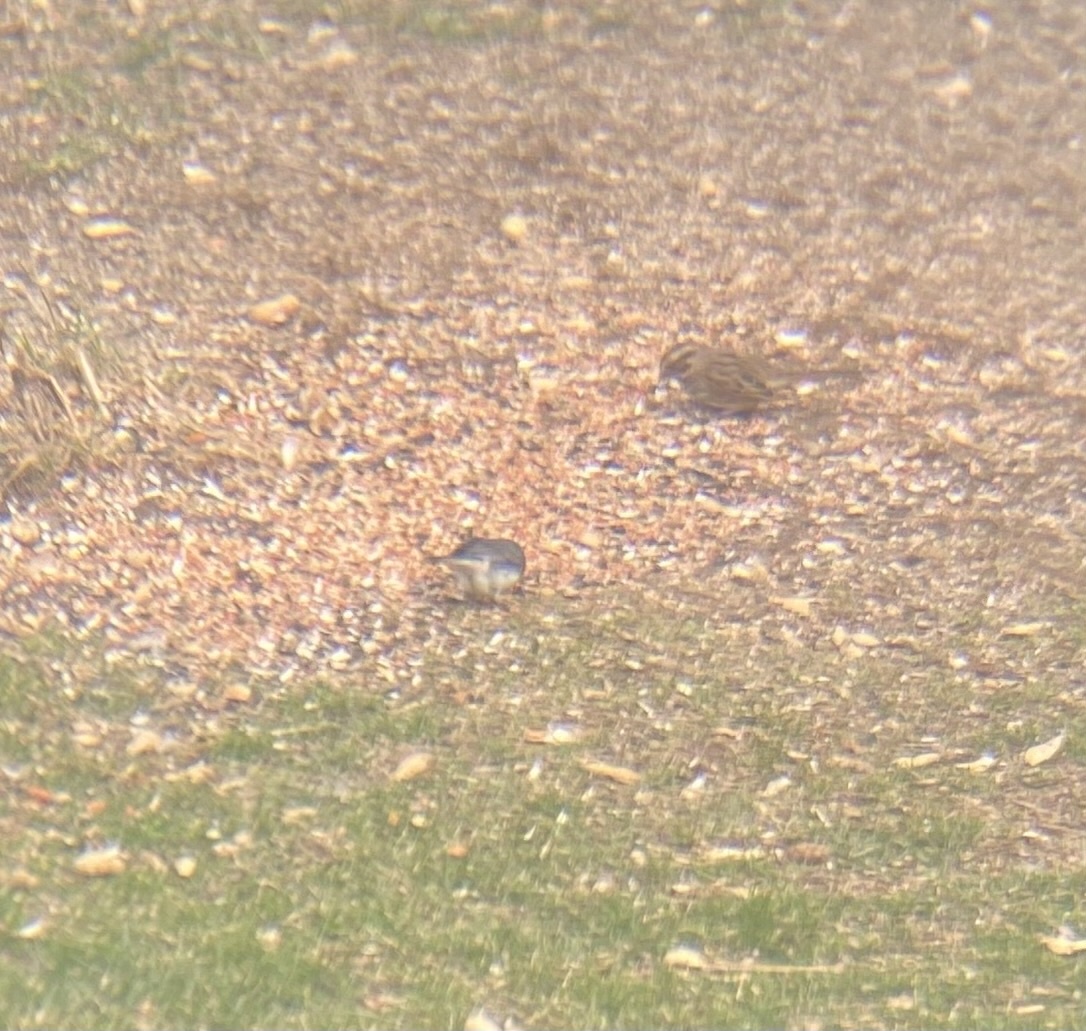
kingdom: Animalia
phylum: Chordata
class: Aves
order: Passeriformes
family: Passerellidae
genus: Junco
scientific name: Junco hyemalis
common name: Dark-eyed junco
